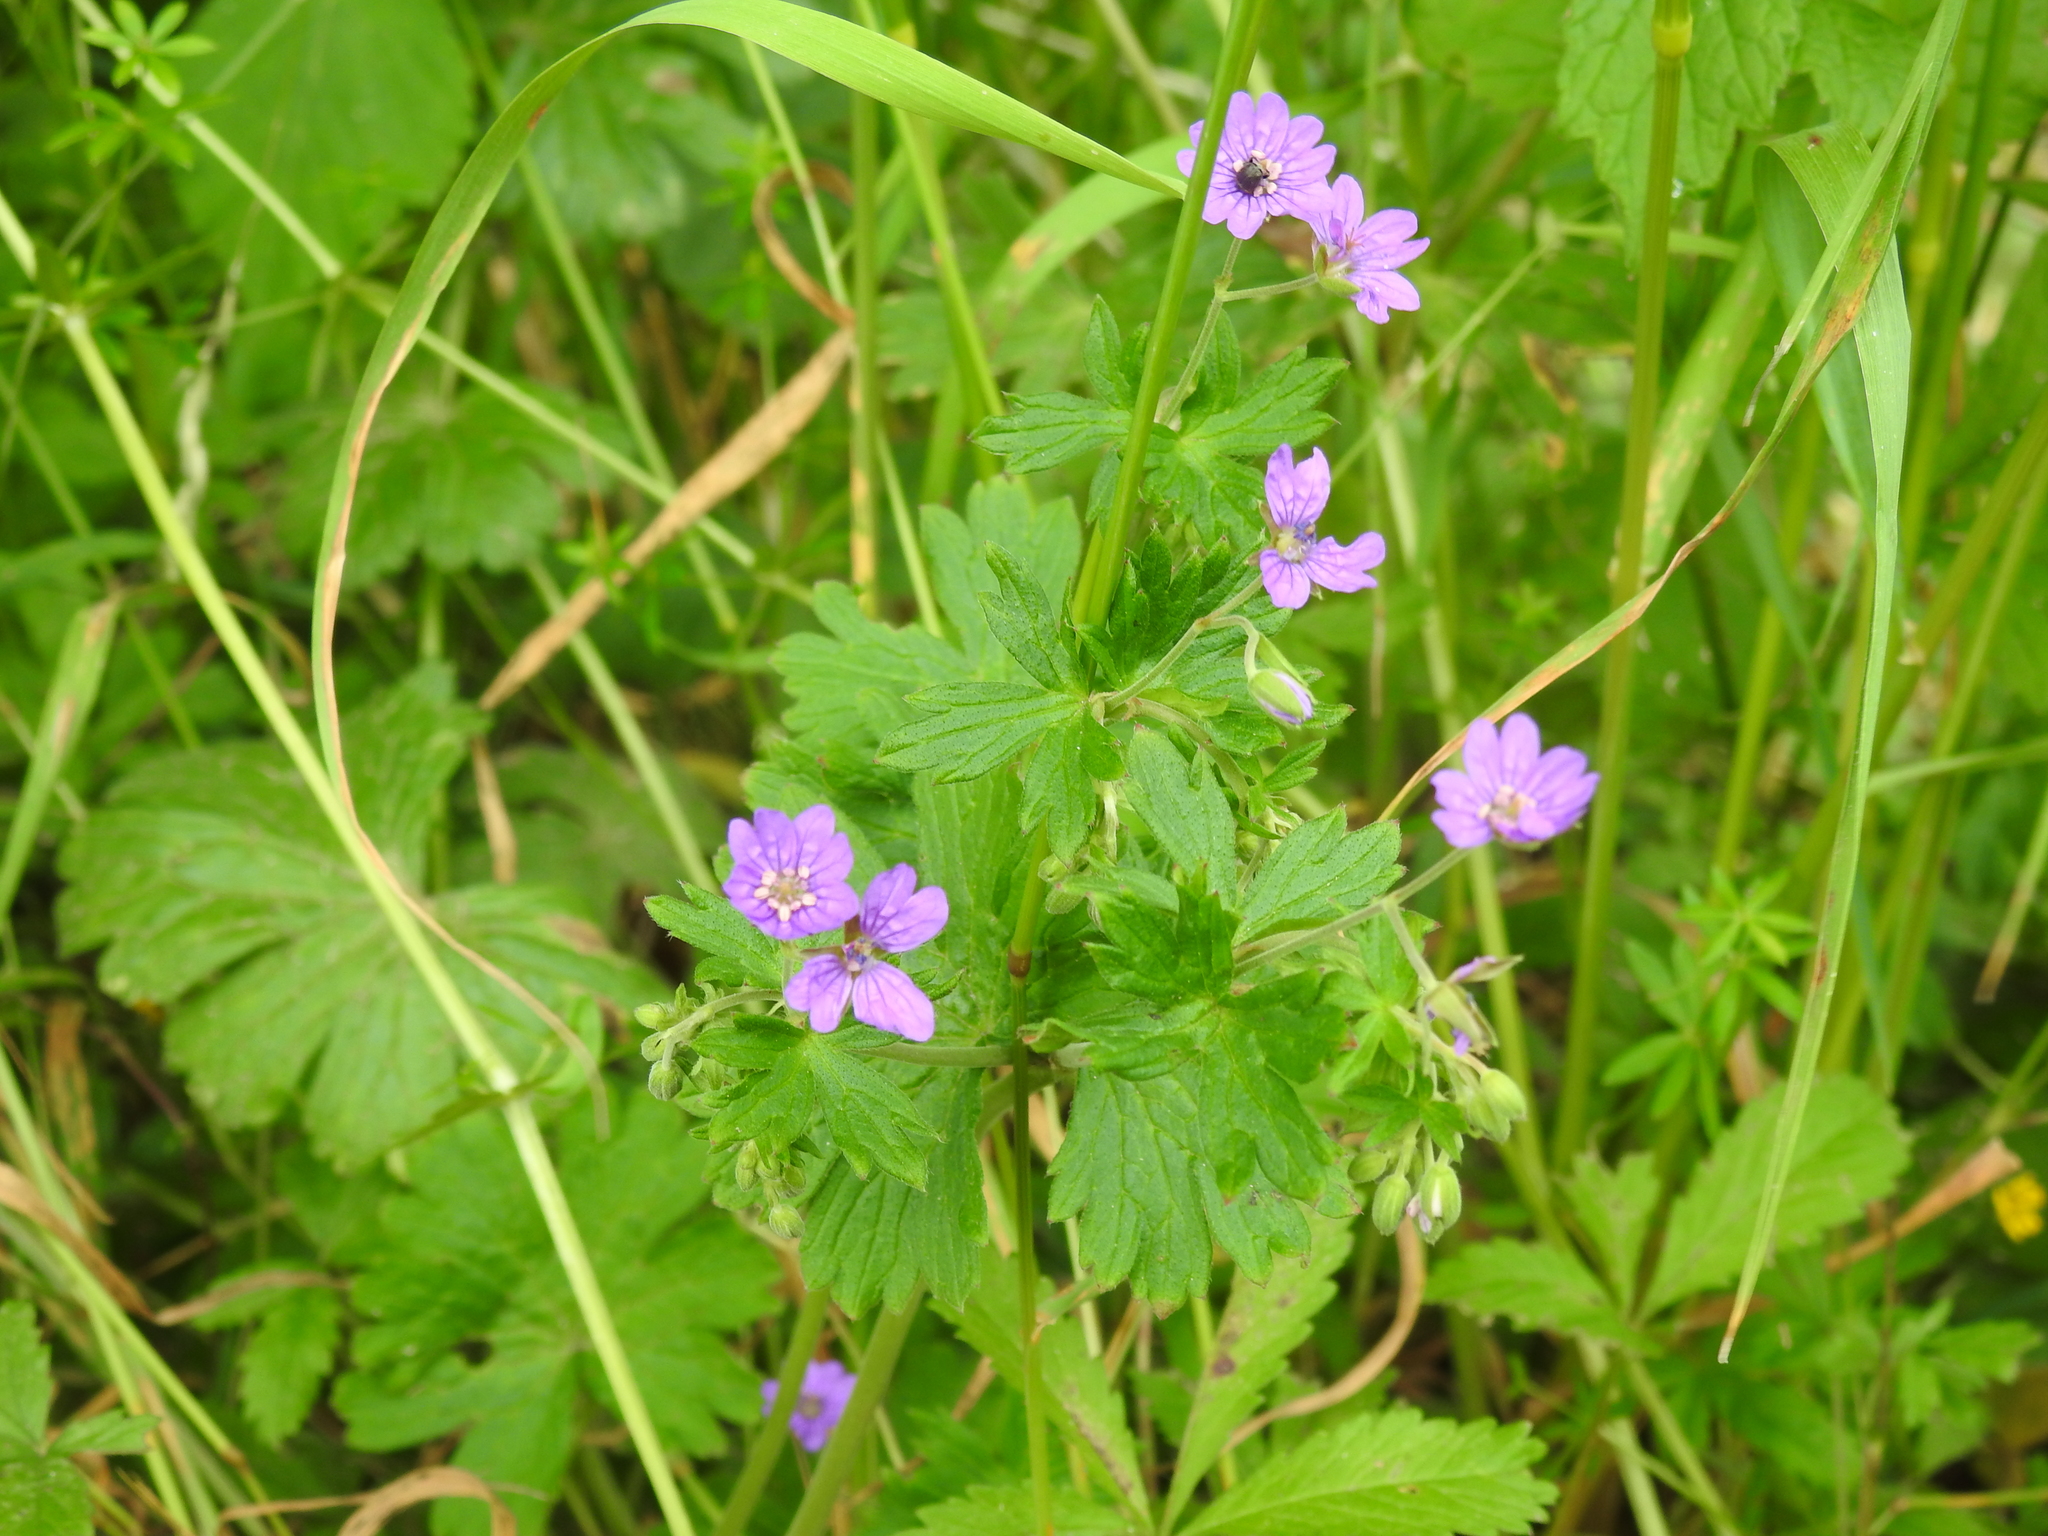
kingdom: Plantae
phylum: Tracheophyta
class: Magnoliopsida
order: Geraniales
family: Geraniaceae
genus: Geranium
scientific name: Geranium pyrenaicum
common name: Hedgerow crane's-bill
